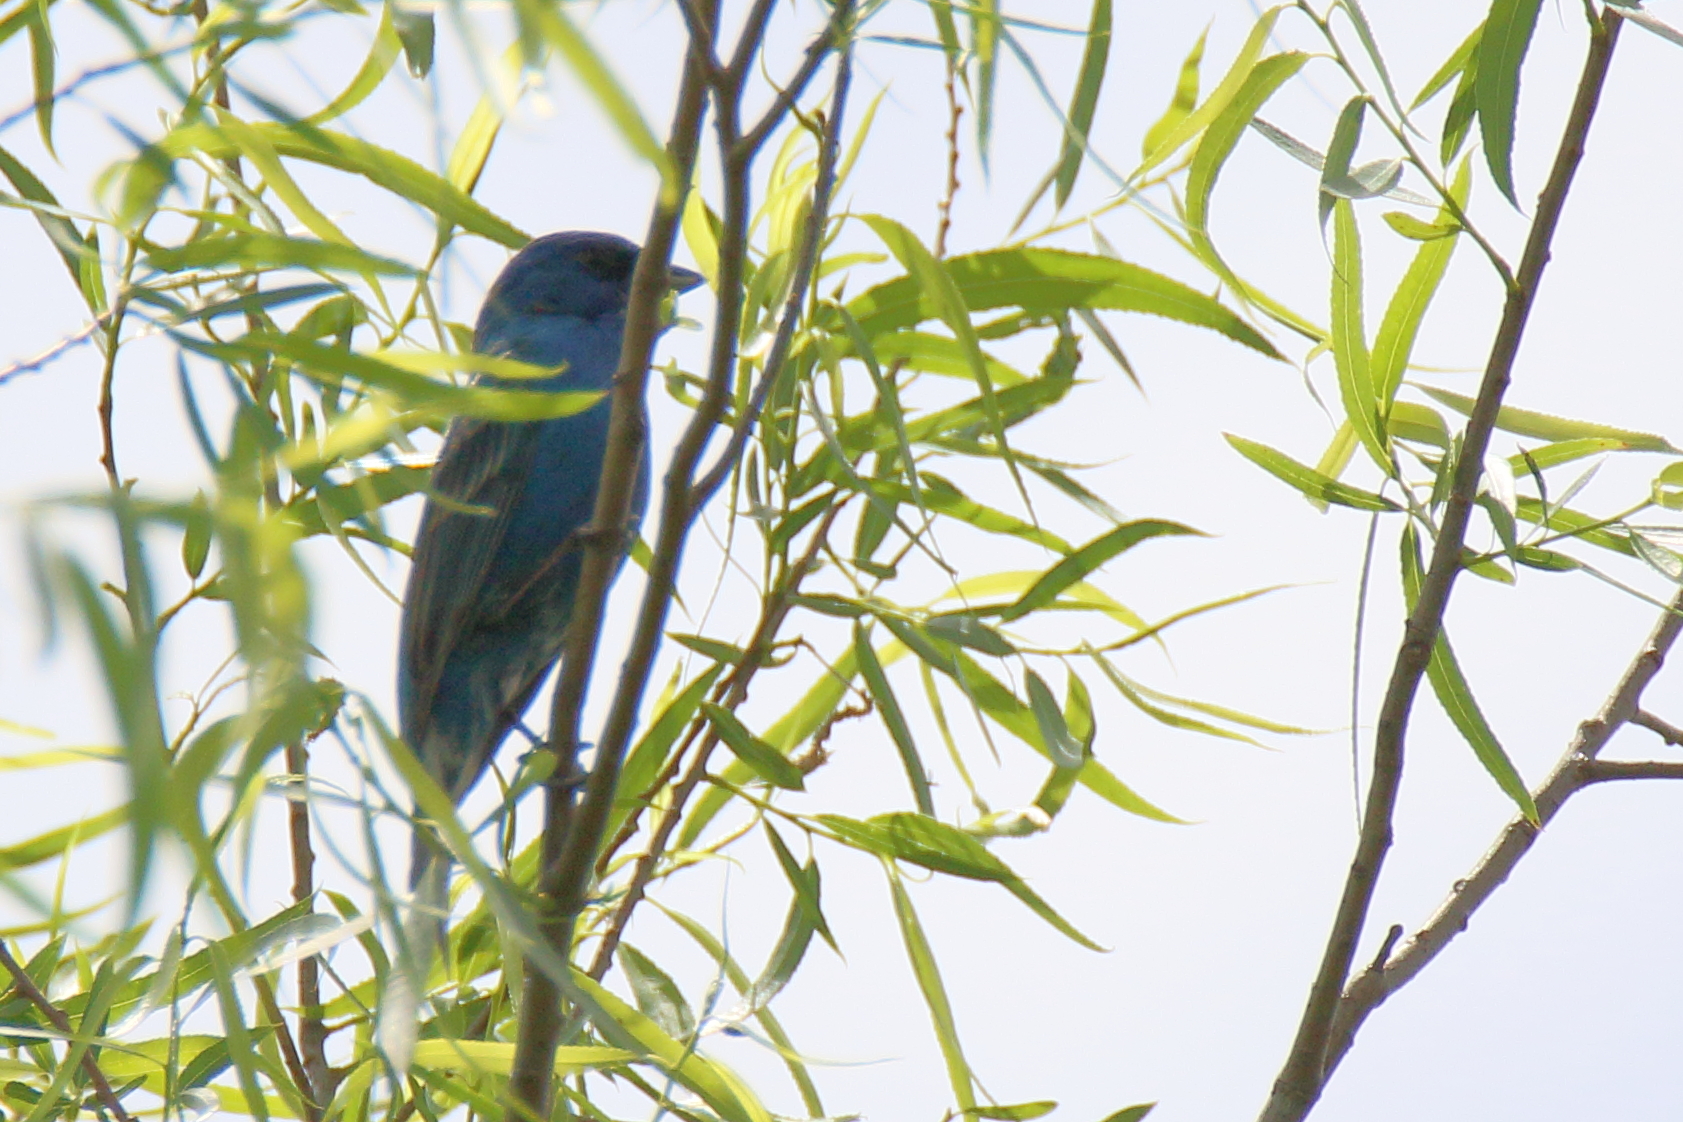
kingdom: Animalia
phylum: Chordata
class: Aves
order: Passeriformes
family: Cardinalidae
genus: Passerina
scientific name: Passerina cyanea
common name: Indigo bunting
